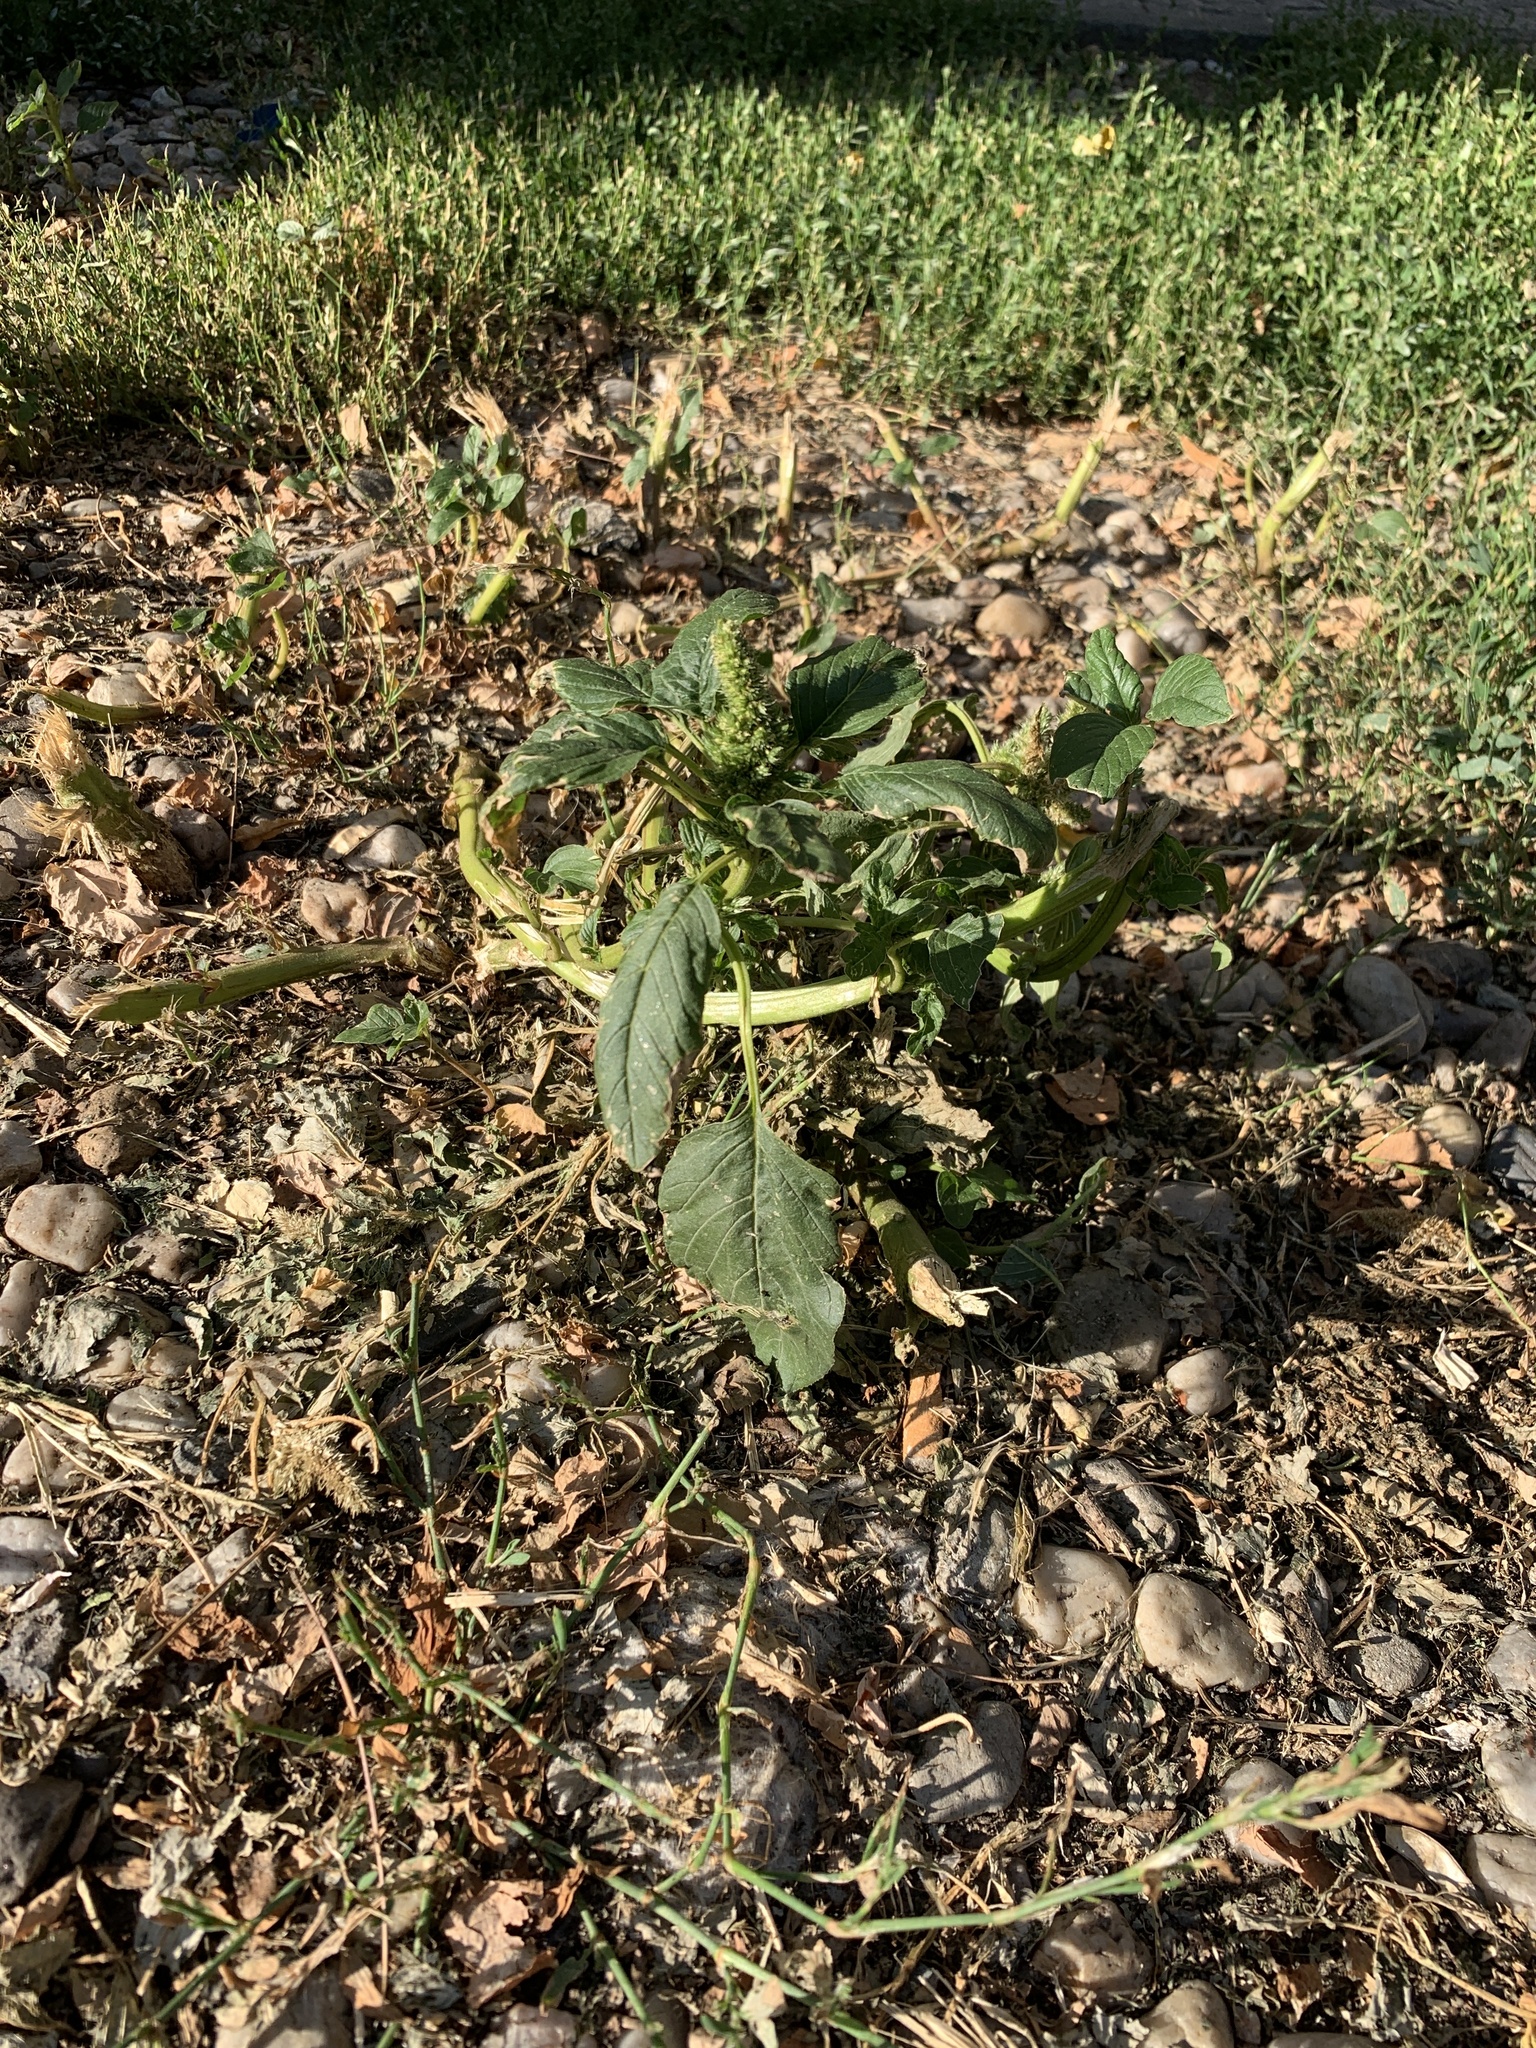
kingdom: Plantae
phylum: Tracheophyta
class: Magnoliopsida
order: Caryophyllales
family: Amaranthaceae
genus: Amaranthus
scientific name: Amaranthus retroflexus
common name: Redroot amaranth
